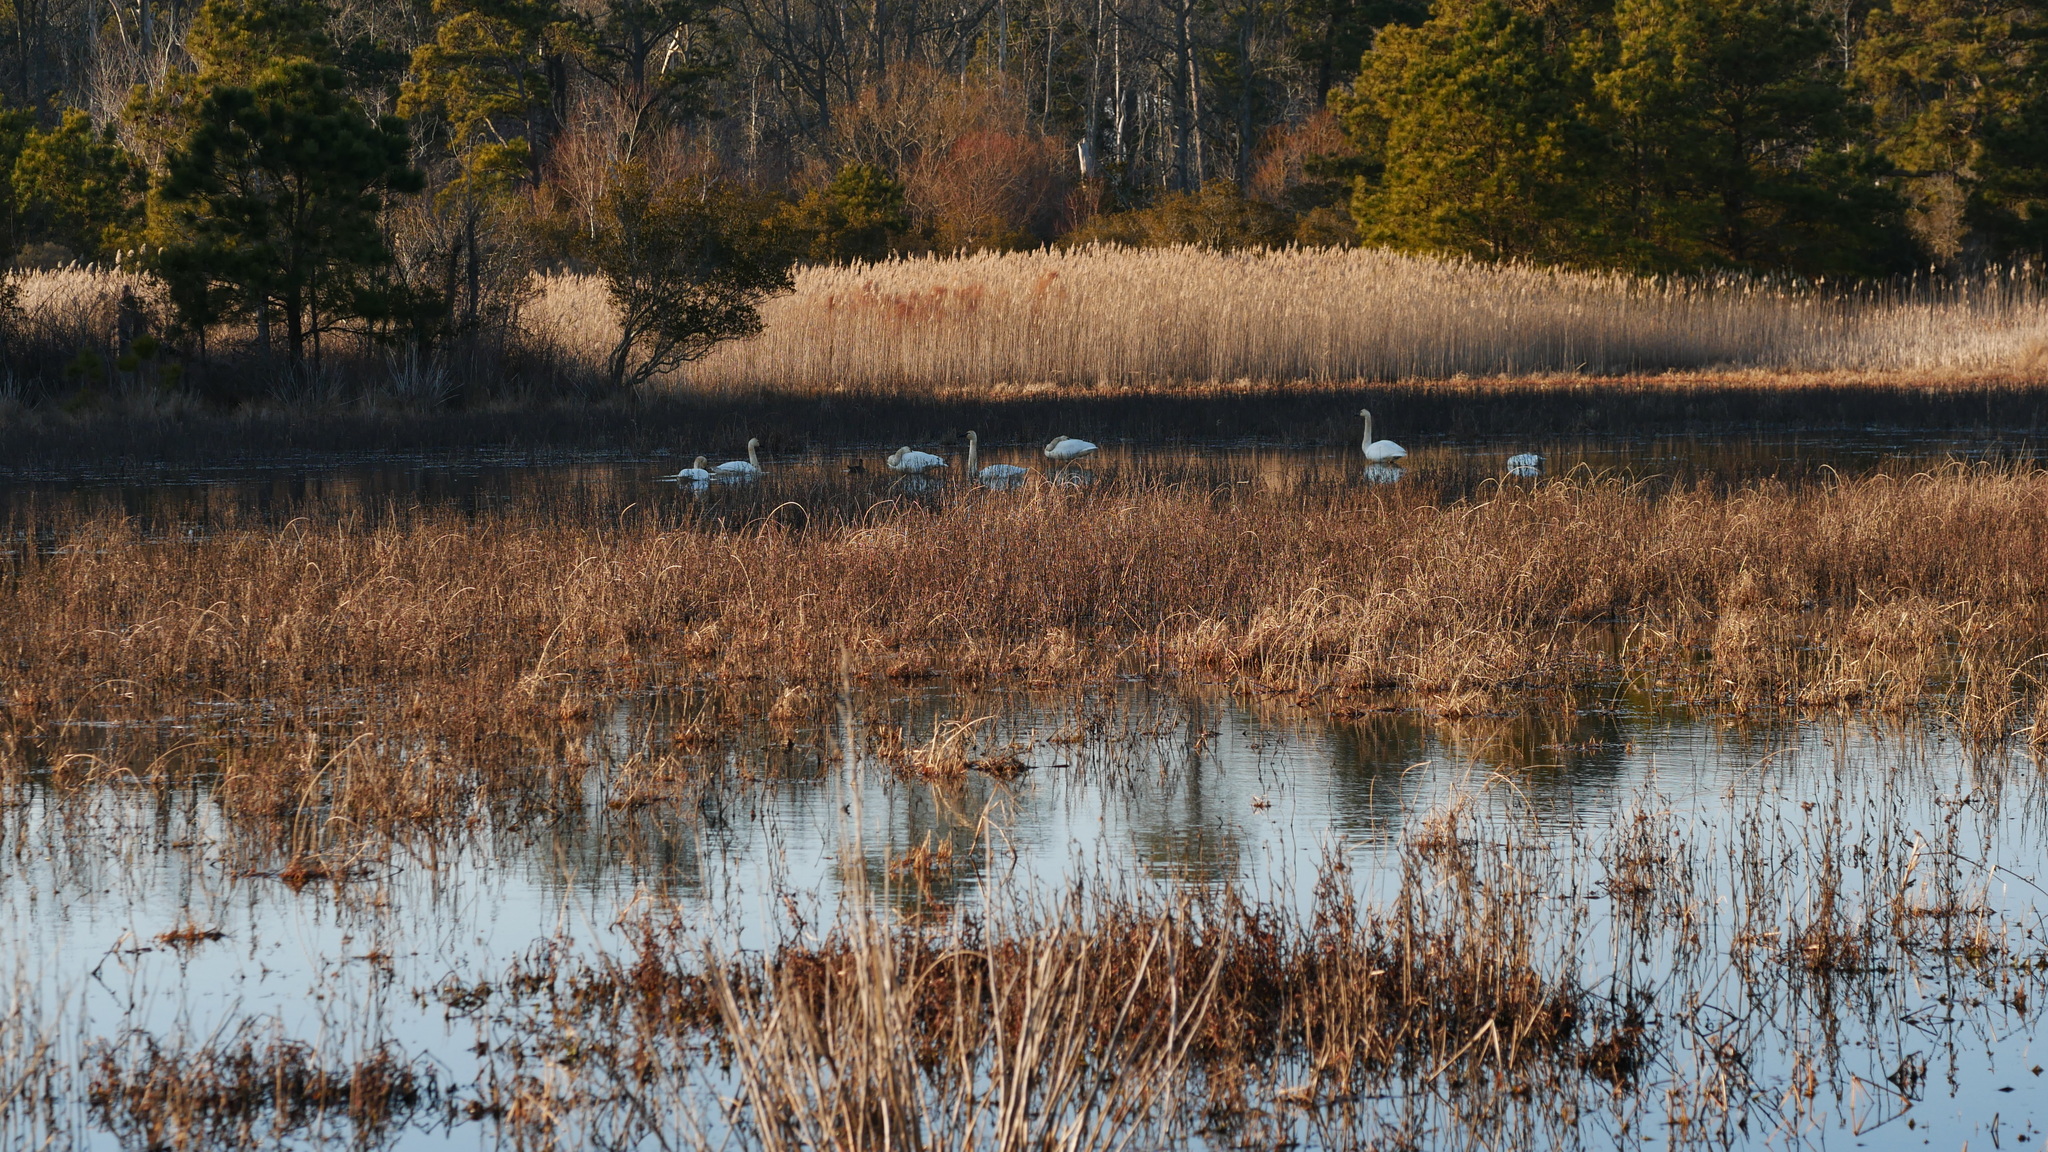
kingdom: Animalia
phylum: Chordata
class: Aves
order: Anseriformes
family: Anatidae
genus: Cygnus
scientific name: Cygnus columbianus
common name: Tundra swan
